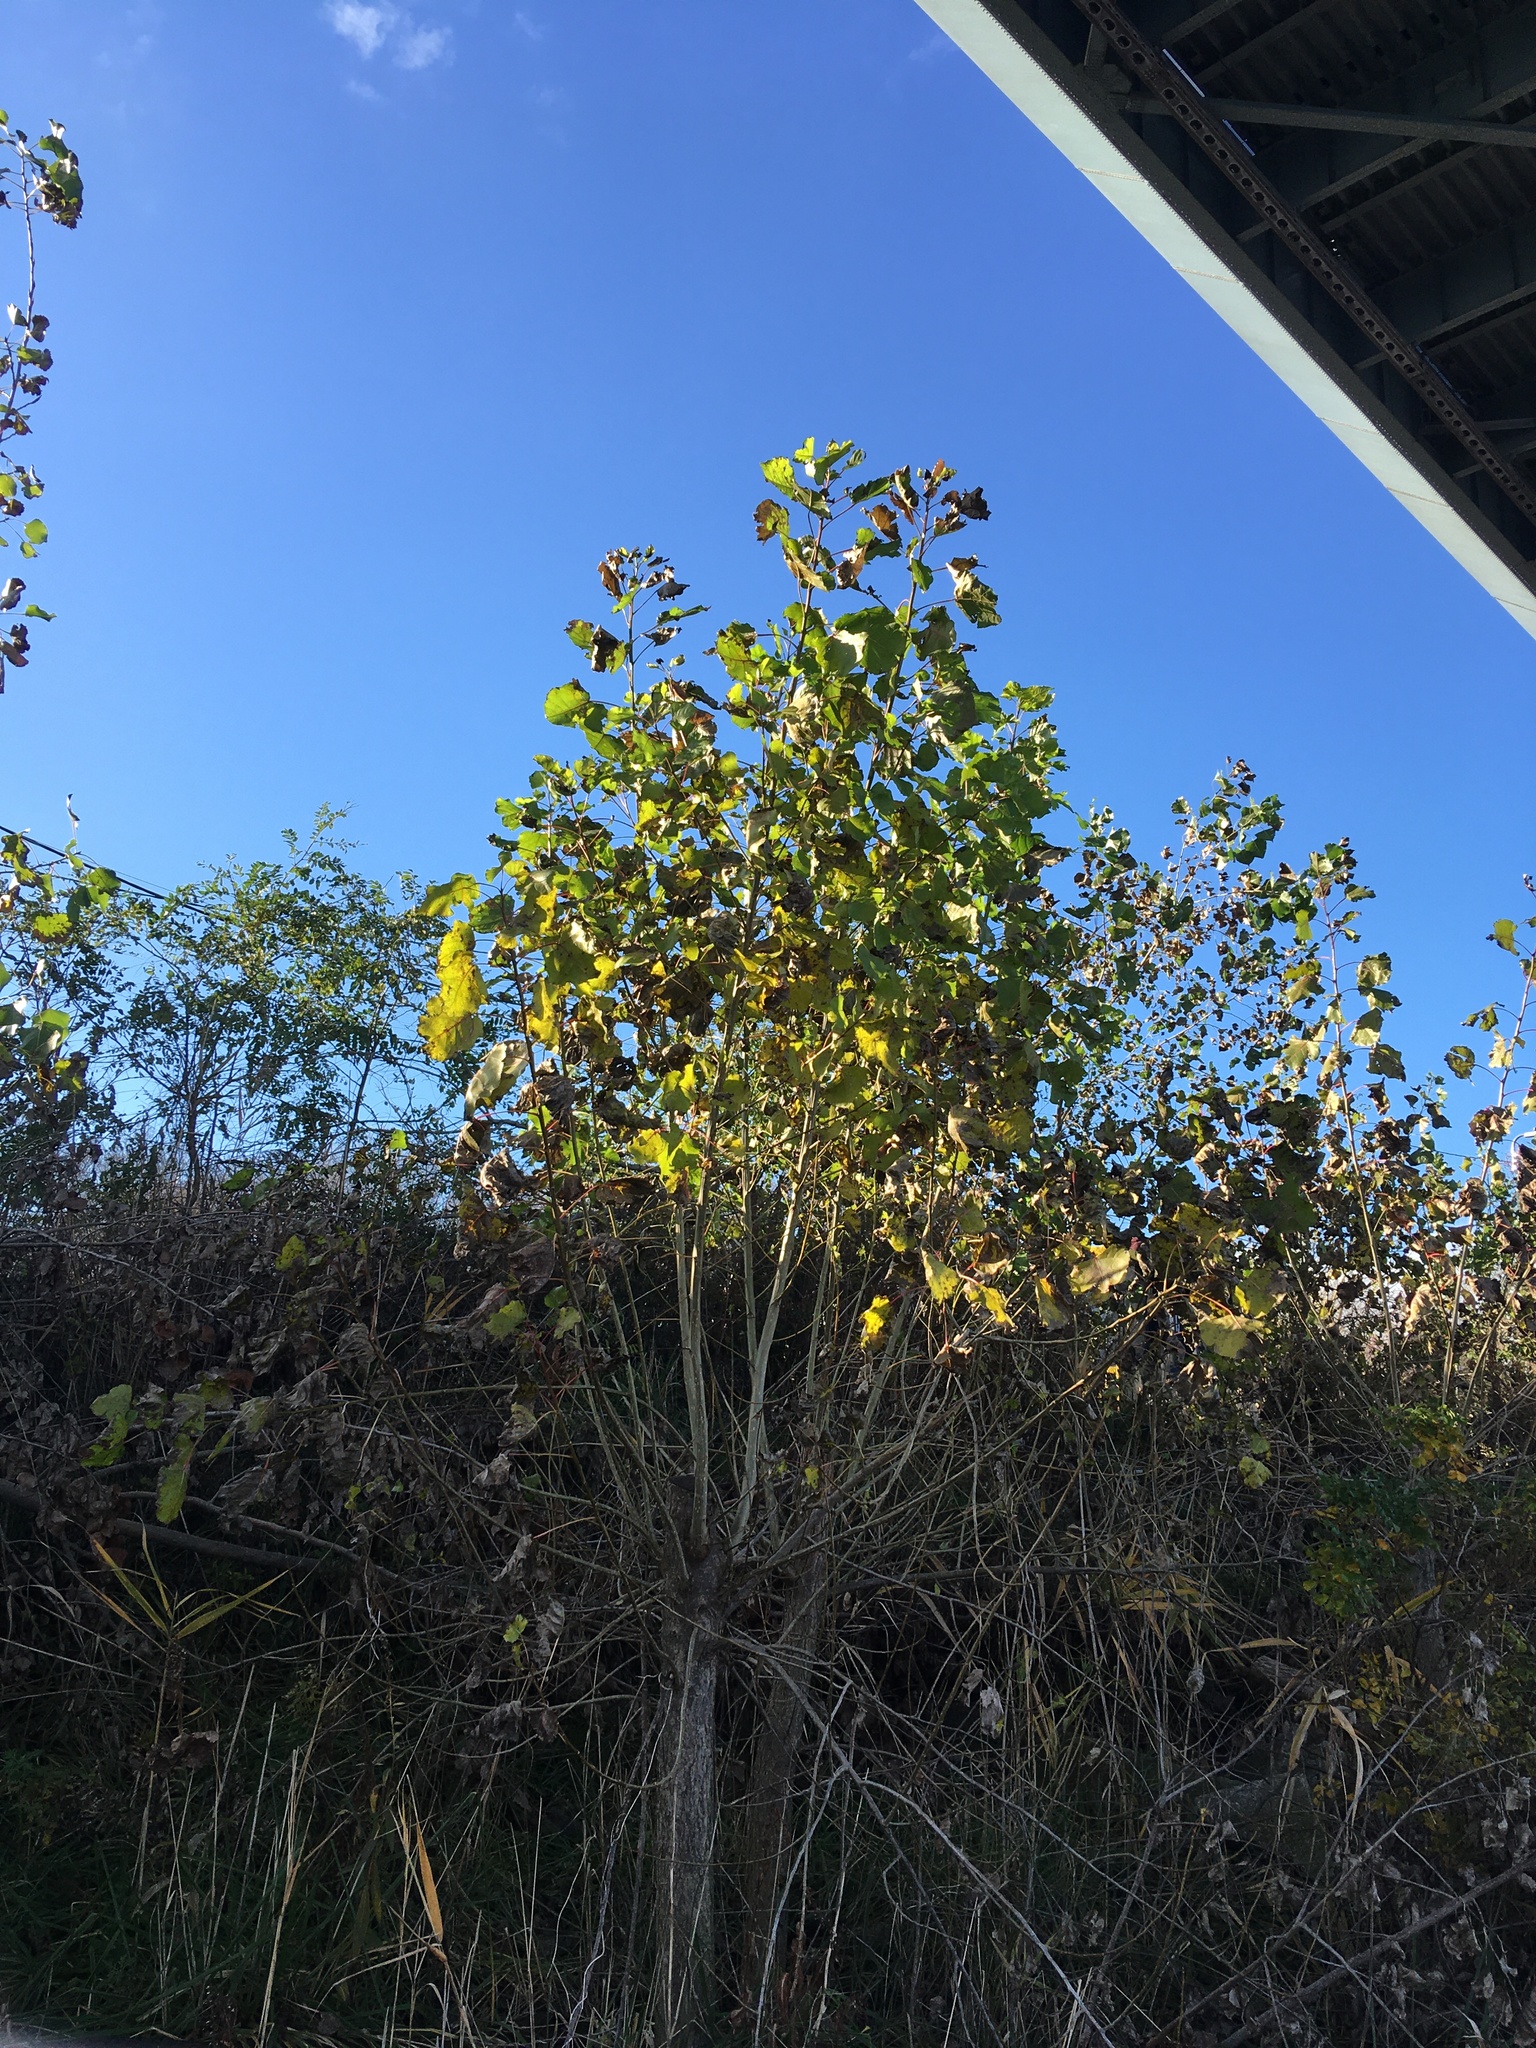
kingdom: Plantae
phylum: Tracheophyta
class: Magnoliopsida
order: Malpighiales
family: Salicaceae
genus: Populus
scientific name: Populus deltoides
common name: Eastern cottonwood
